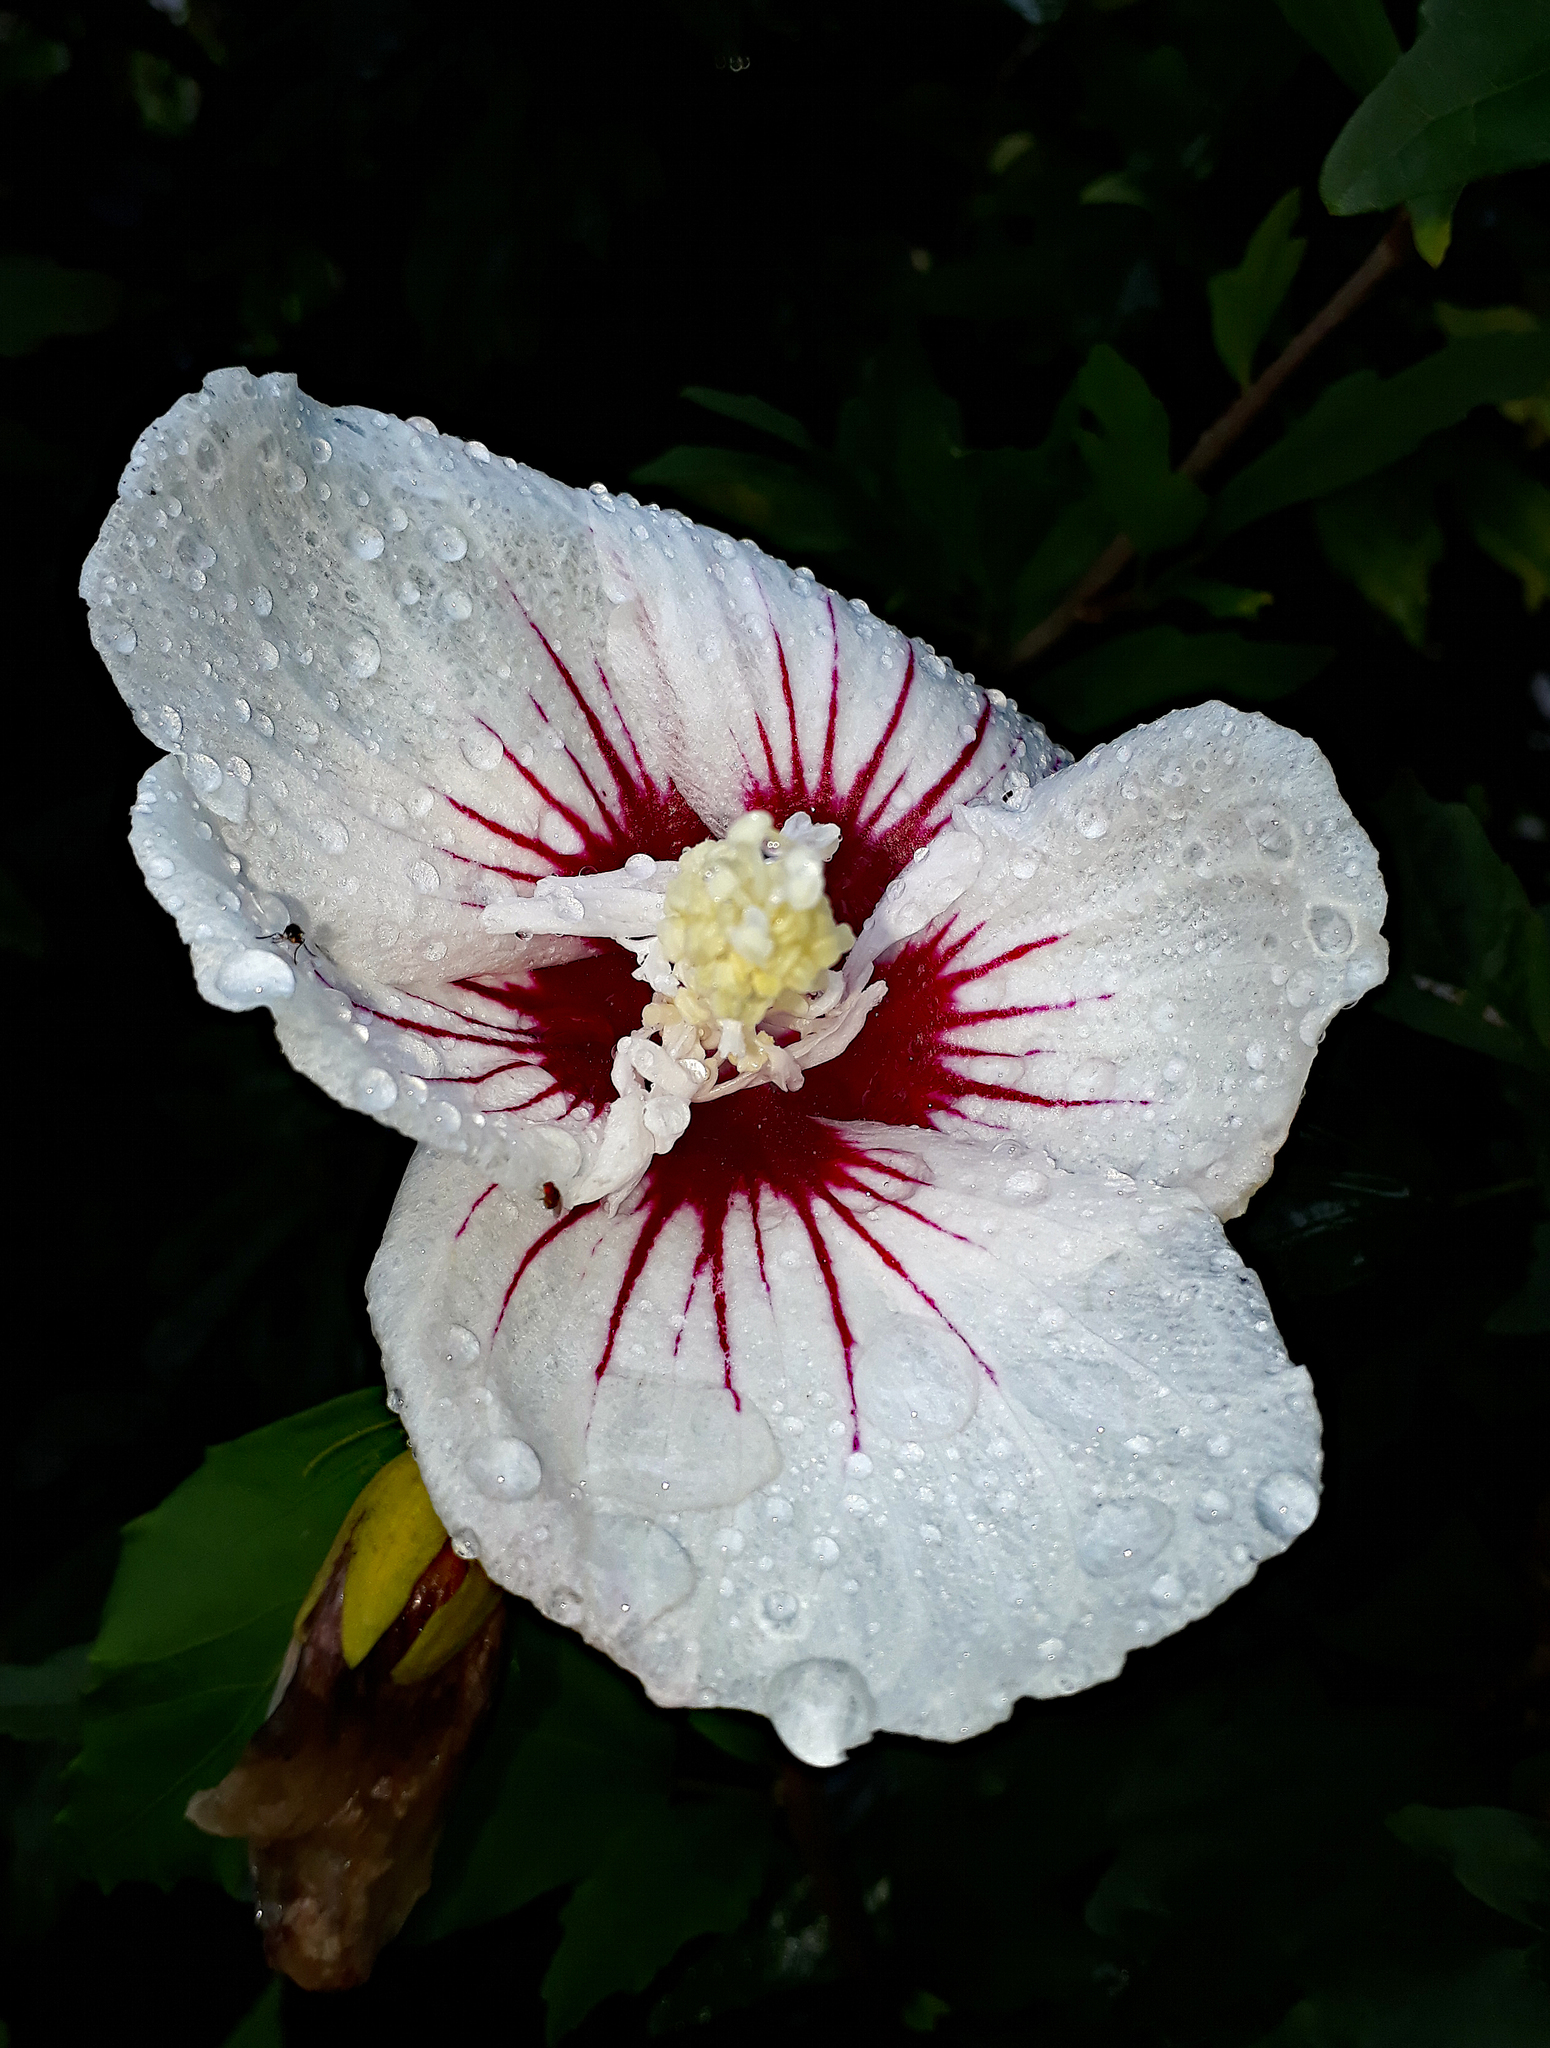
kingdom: Plantae
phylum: Tracheophyta
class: Magnoliopsida
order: Malvales
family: Malvaceae
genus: Hibiscus
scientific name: Hibiscus syriacus
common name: Syrian ketmia
